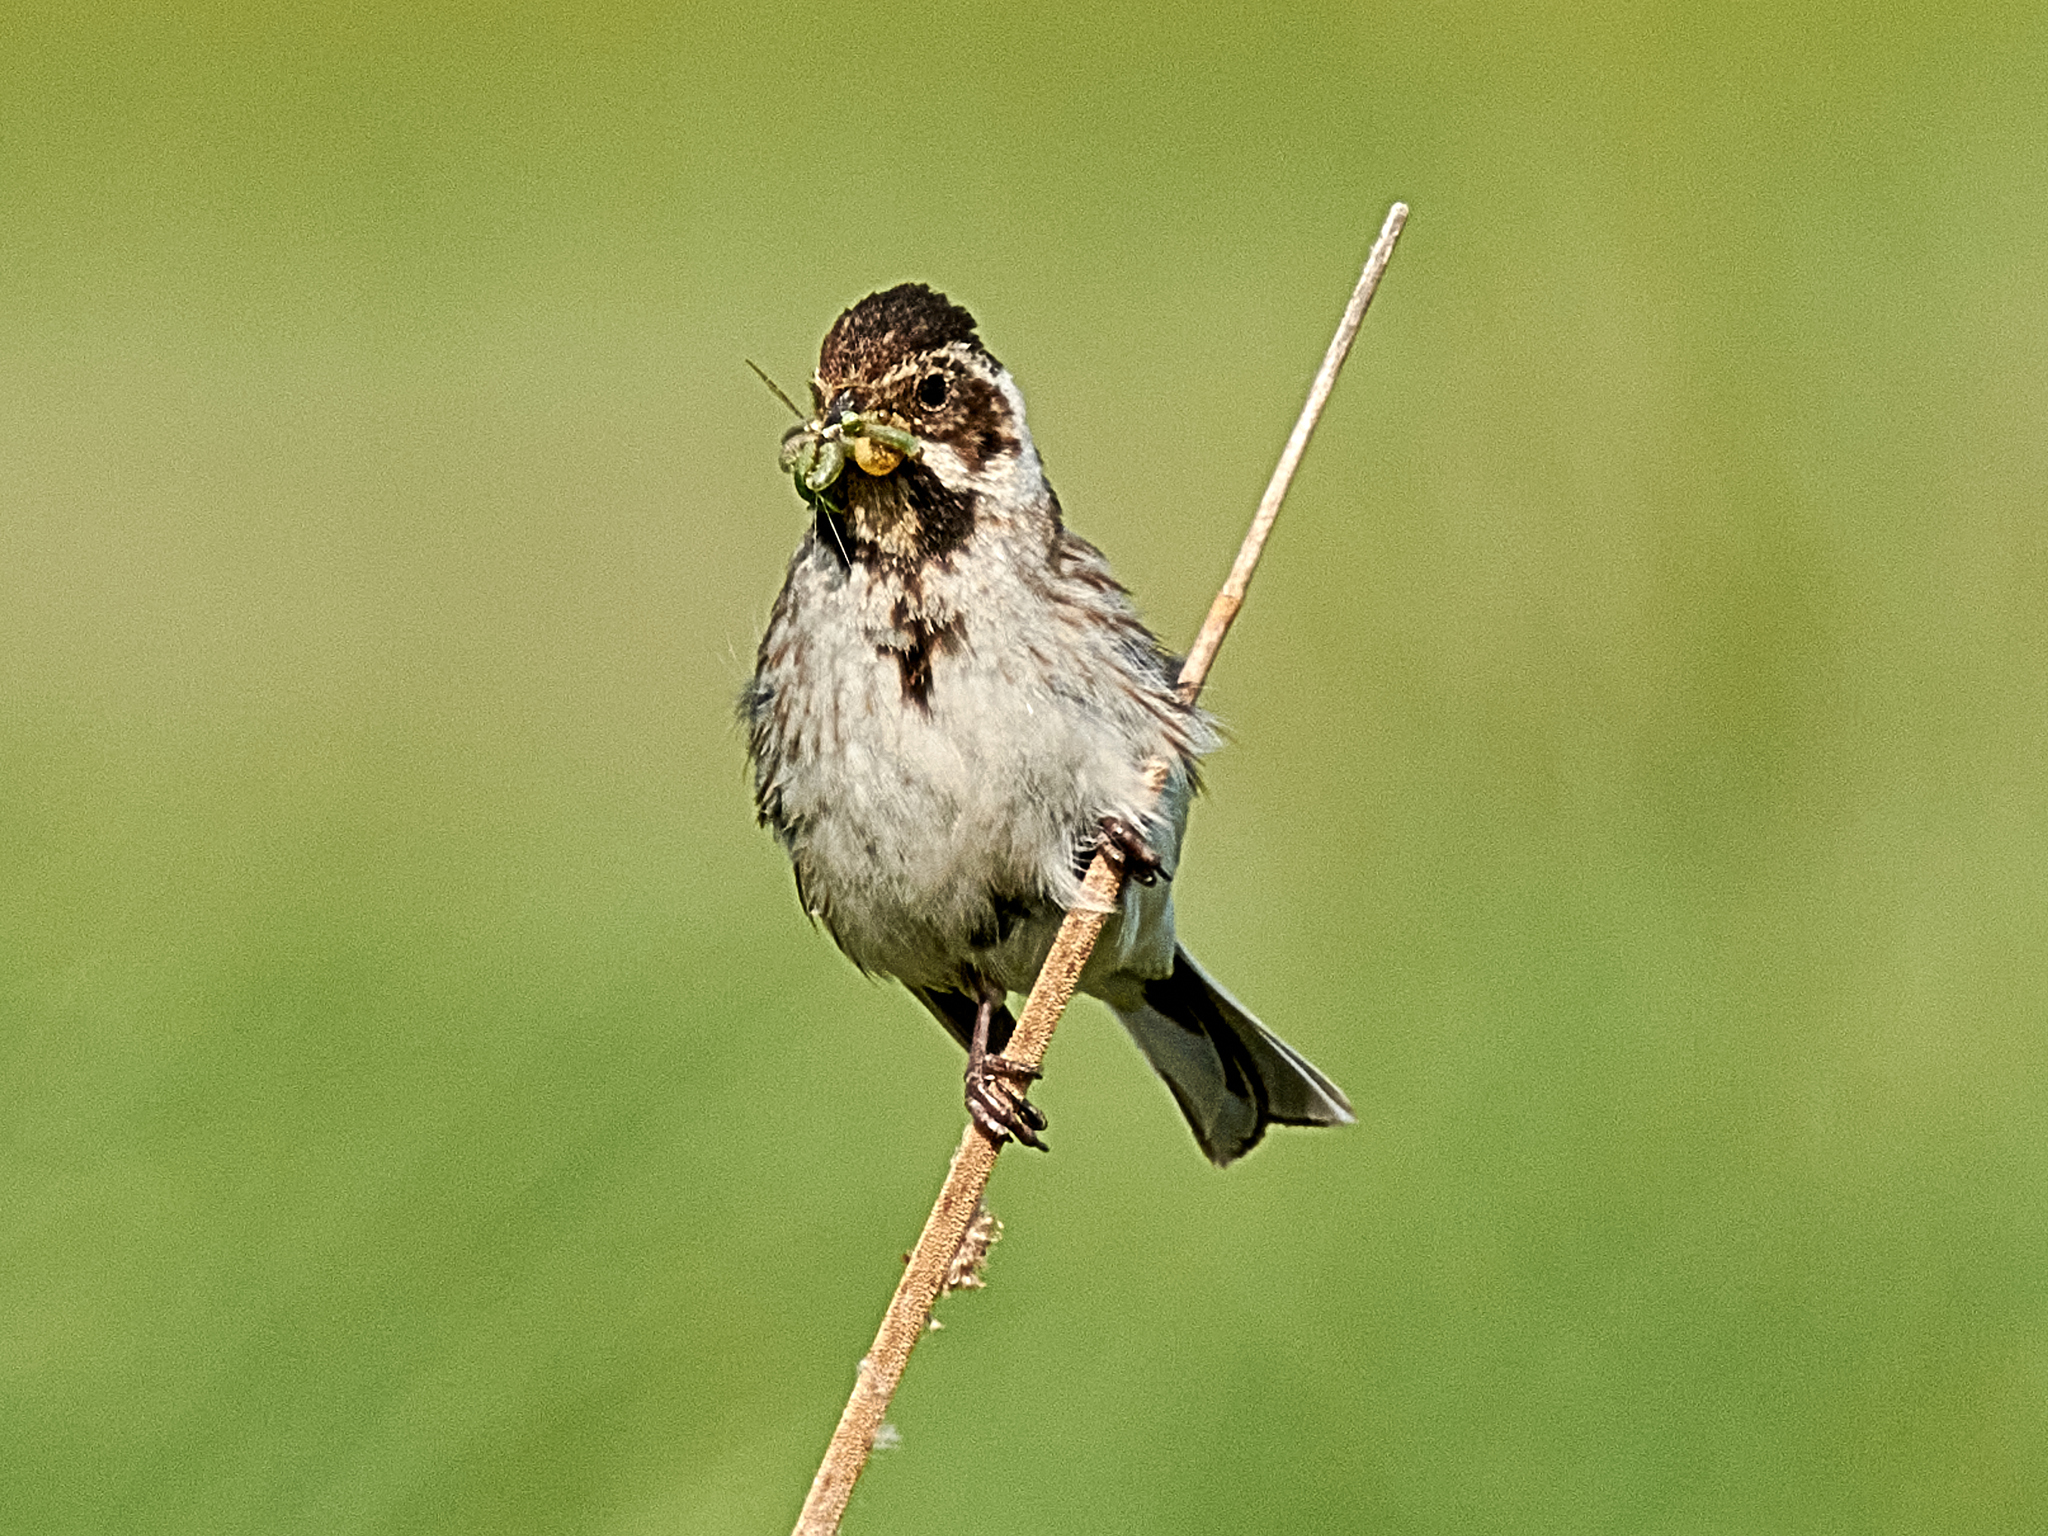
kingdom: Animalia
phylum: Chordata
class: Aves
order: Passeriformes
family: Emberizidae
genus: Emberiza
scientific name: Emberiza schoeniclus
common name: Reed bunting
